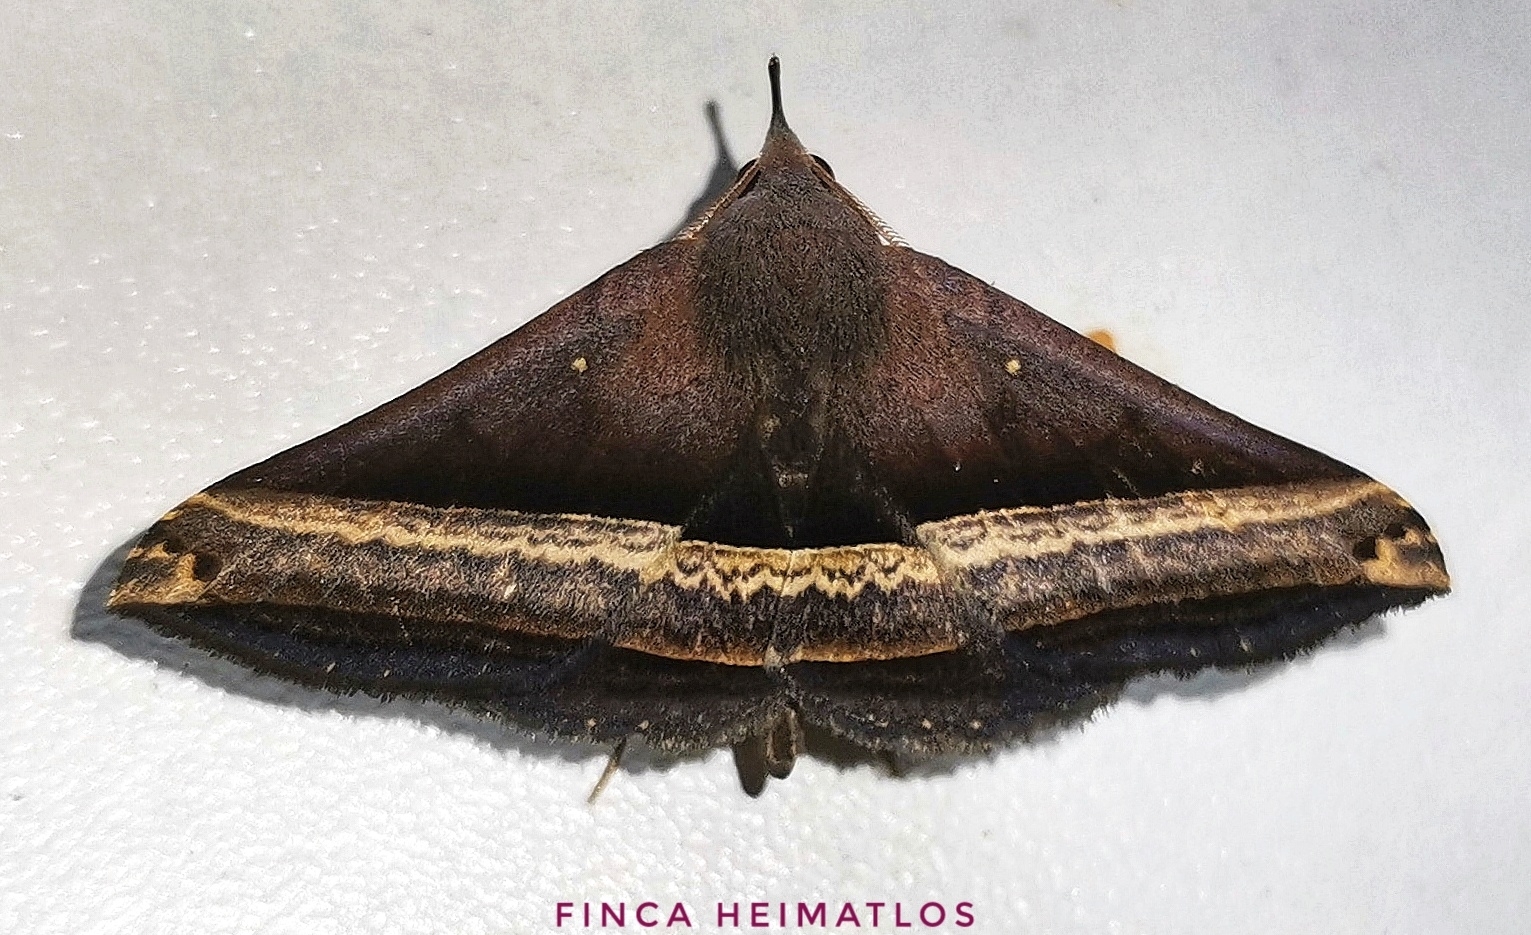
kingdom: Animalia
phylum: Arthropoda
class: Insecta
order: Lepidoptera
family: Erebidae
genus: Pterhemia
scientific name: Pterhemia
